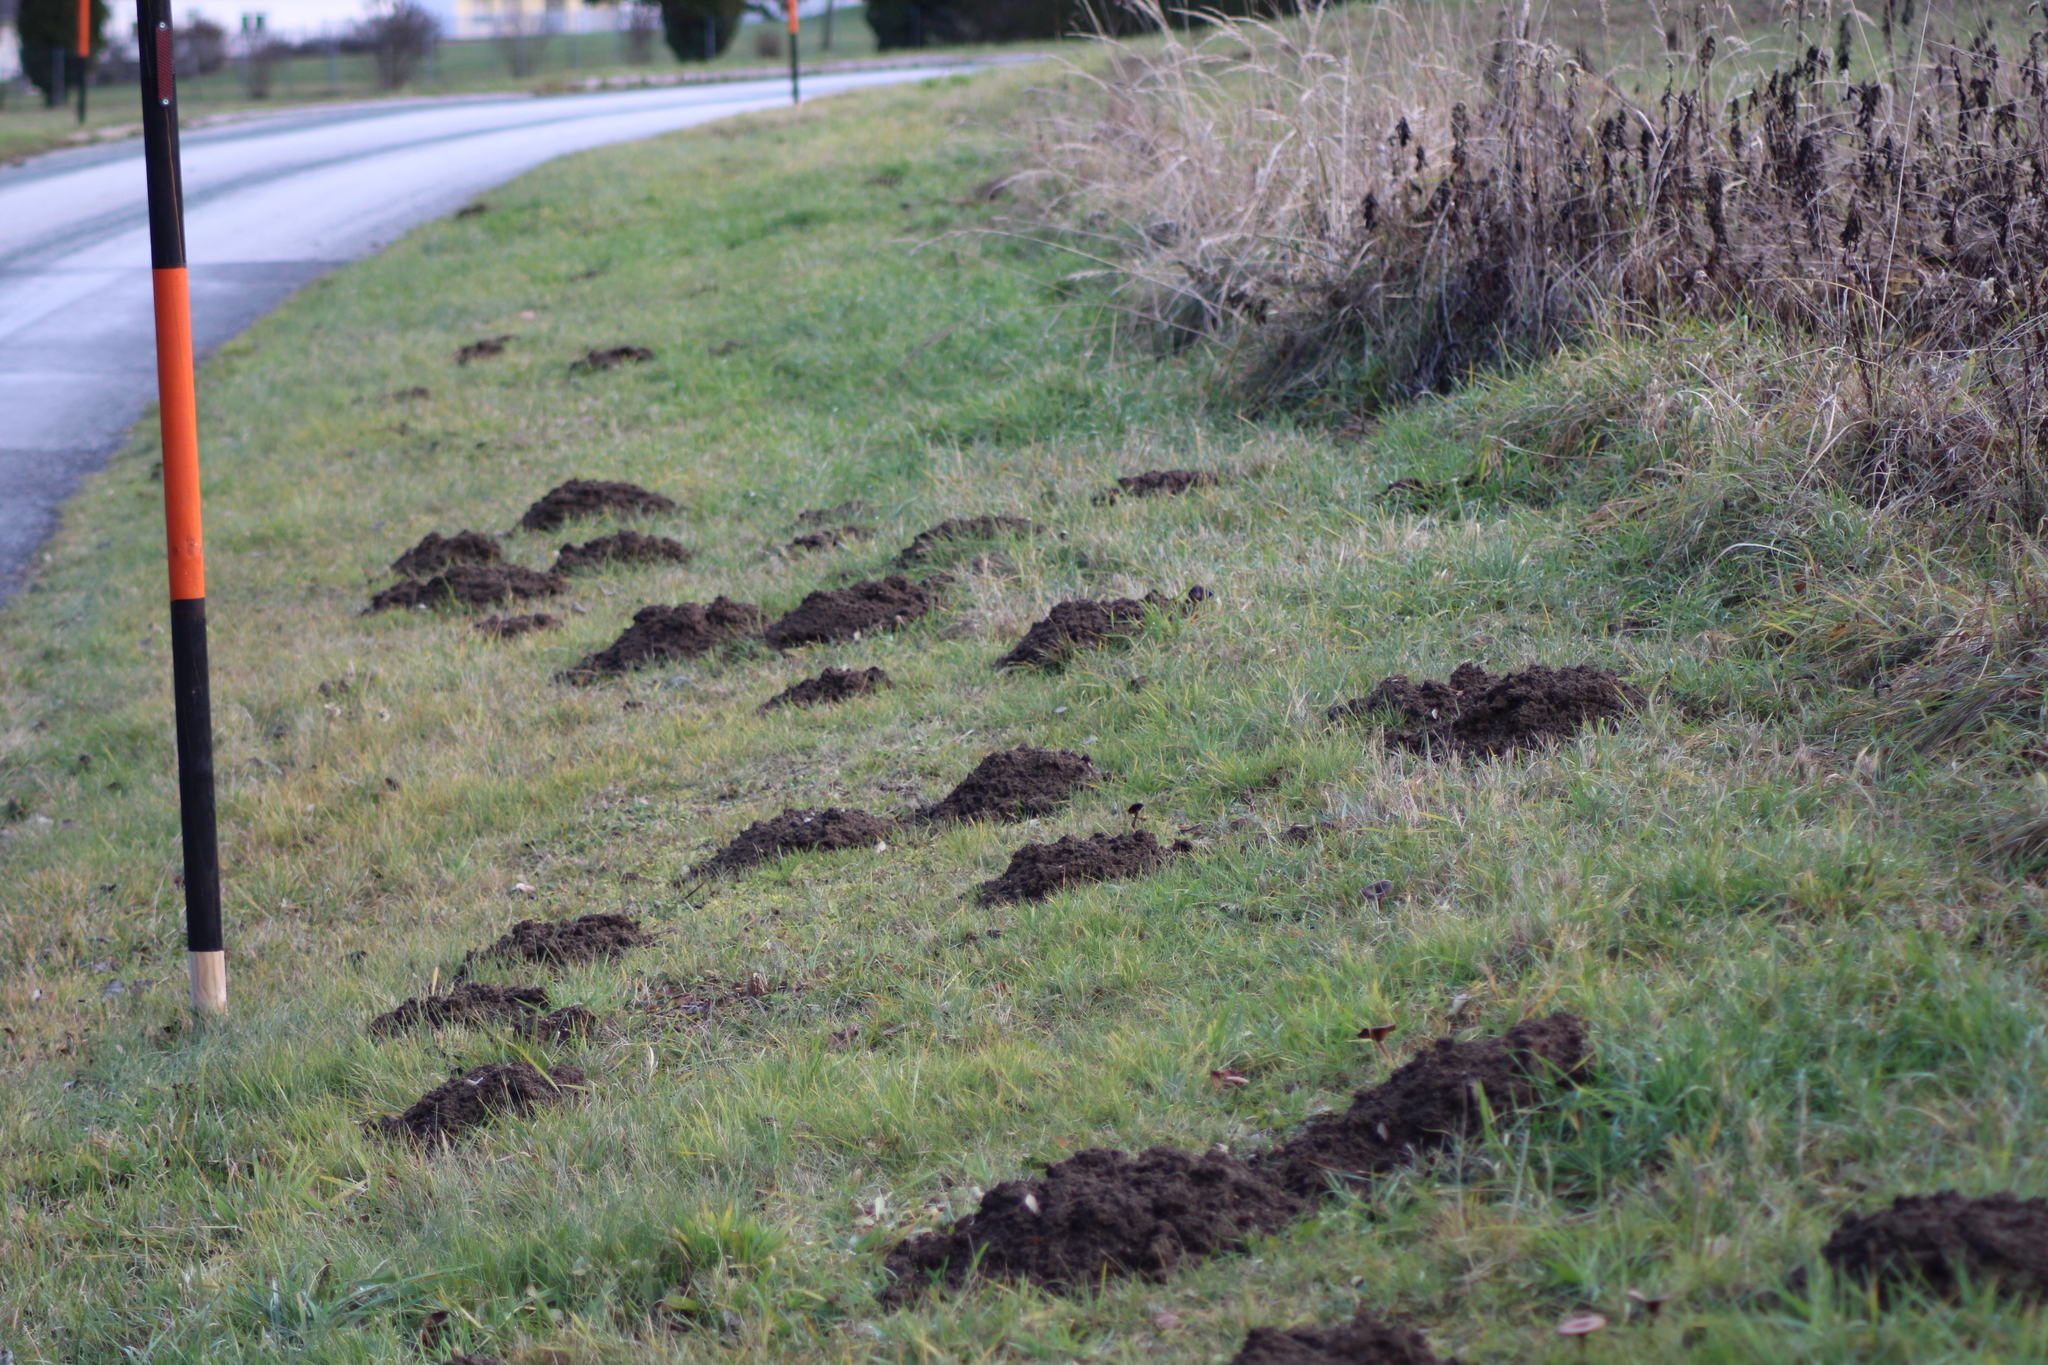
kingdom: Animalia
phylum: Chordata
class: Mammalia
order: Soricomorpha
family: Talpidae
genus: Talpa
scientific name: Talpa europaea
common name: European mole
